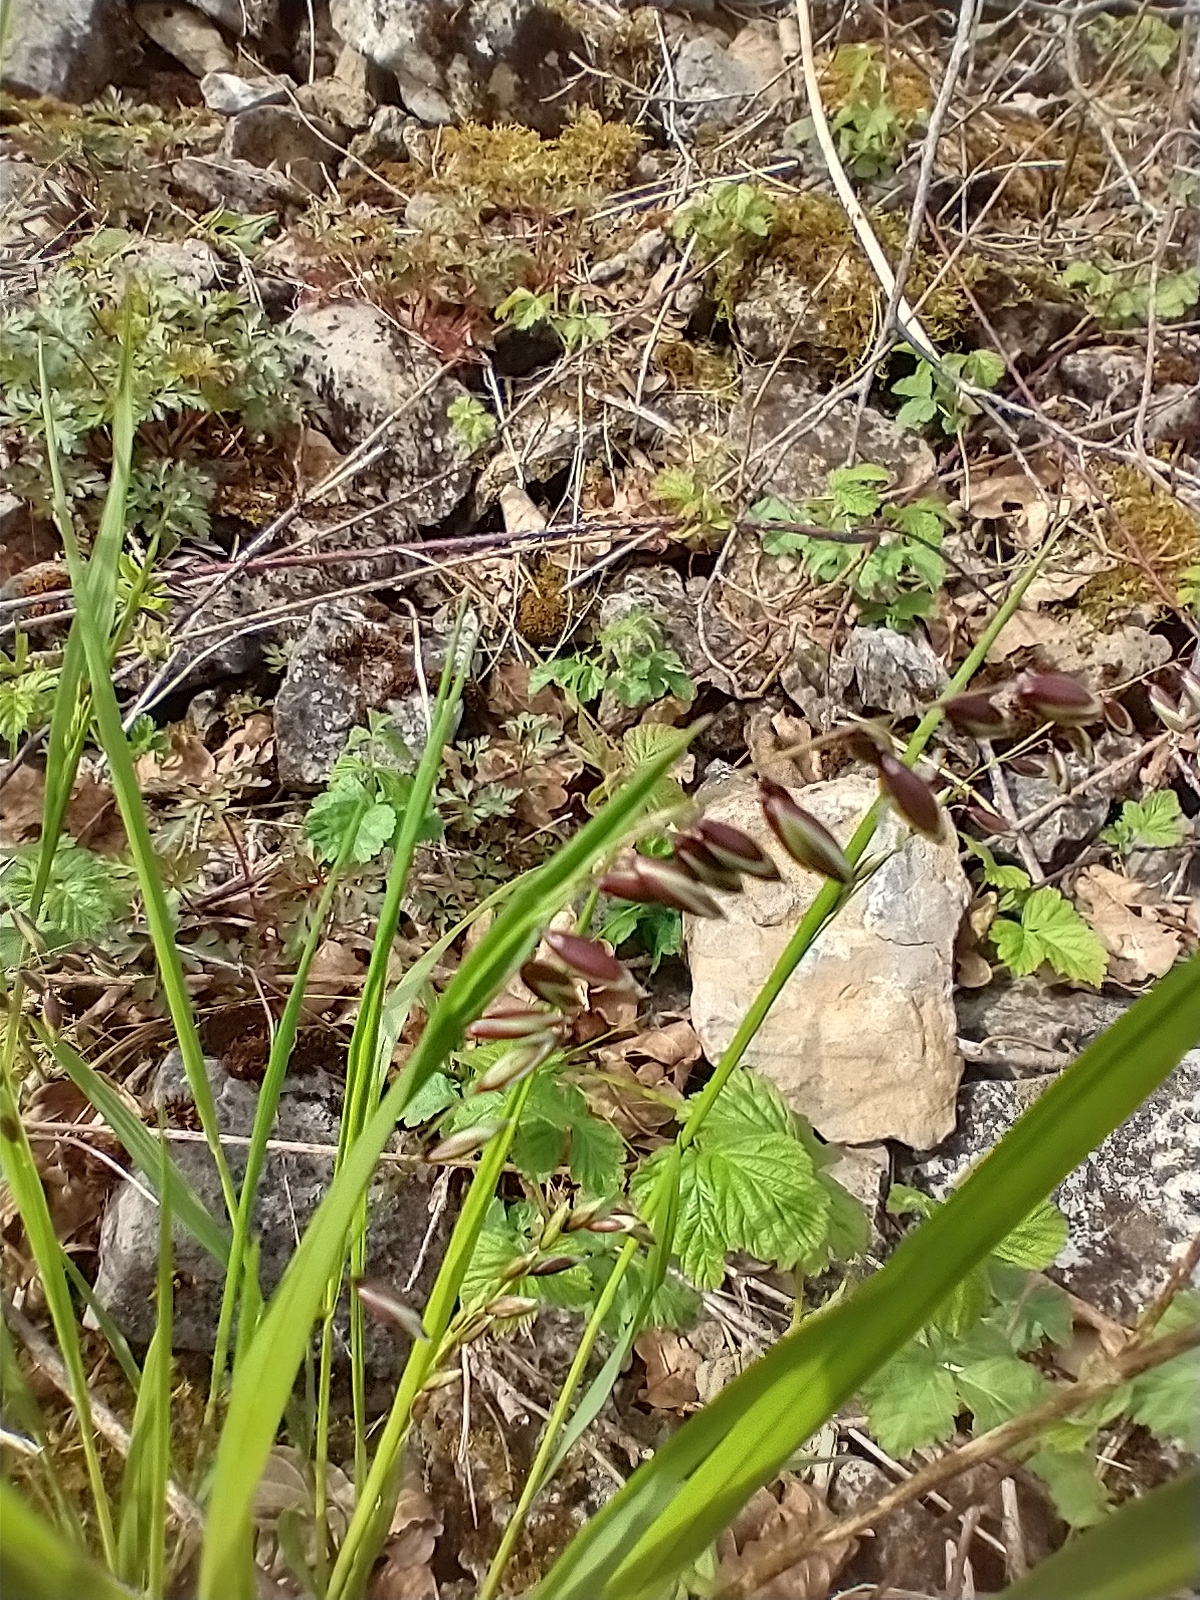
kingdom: Plantae
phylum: Tracheophyta
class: Liliopsida
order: Poales
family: Poaceae
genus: Melica
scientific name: Melica nutans
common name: Mountain melick
